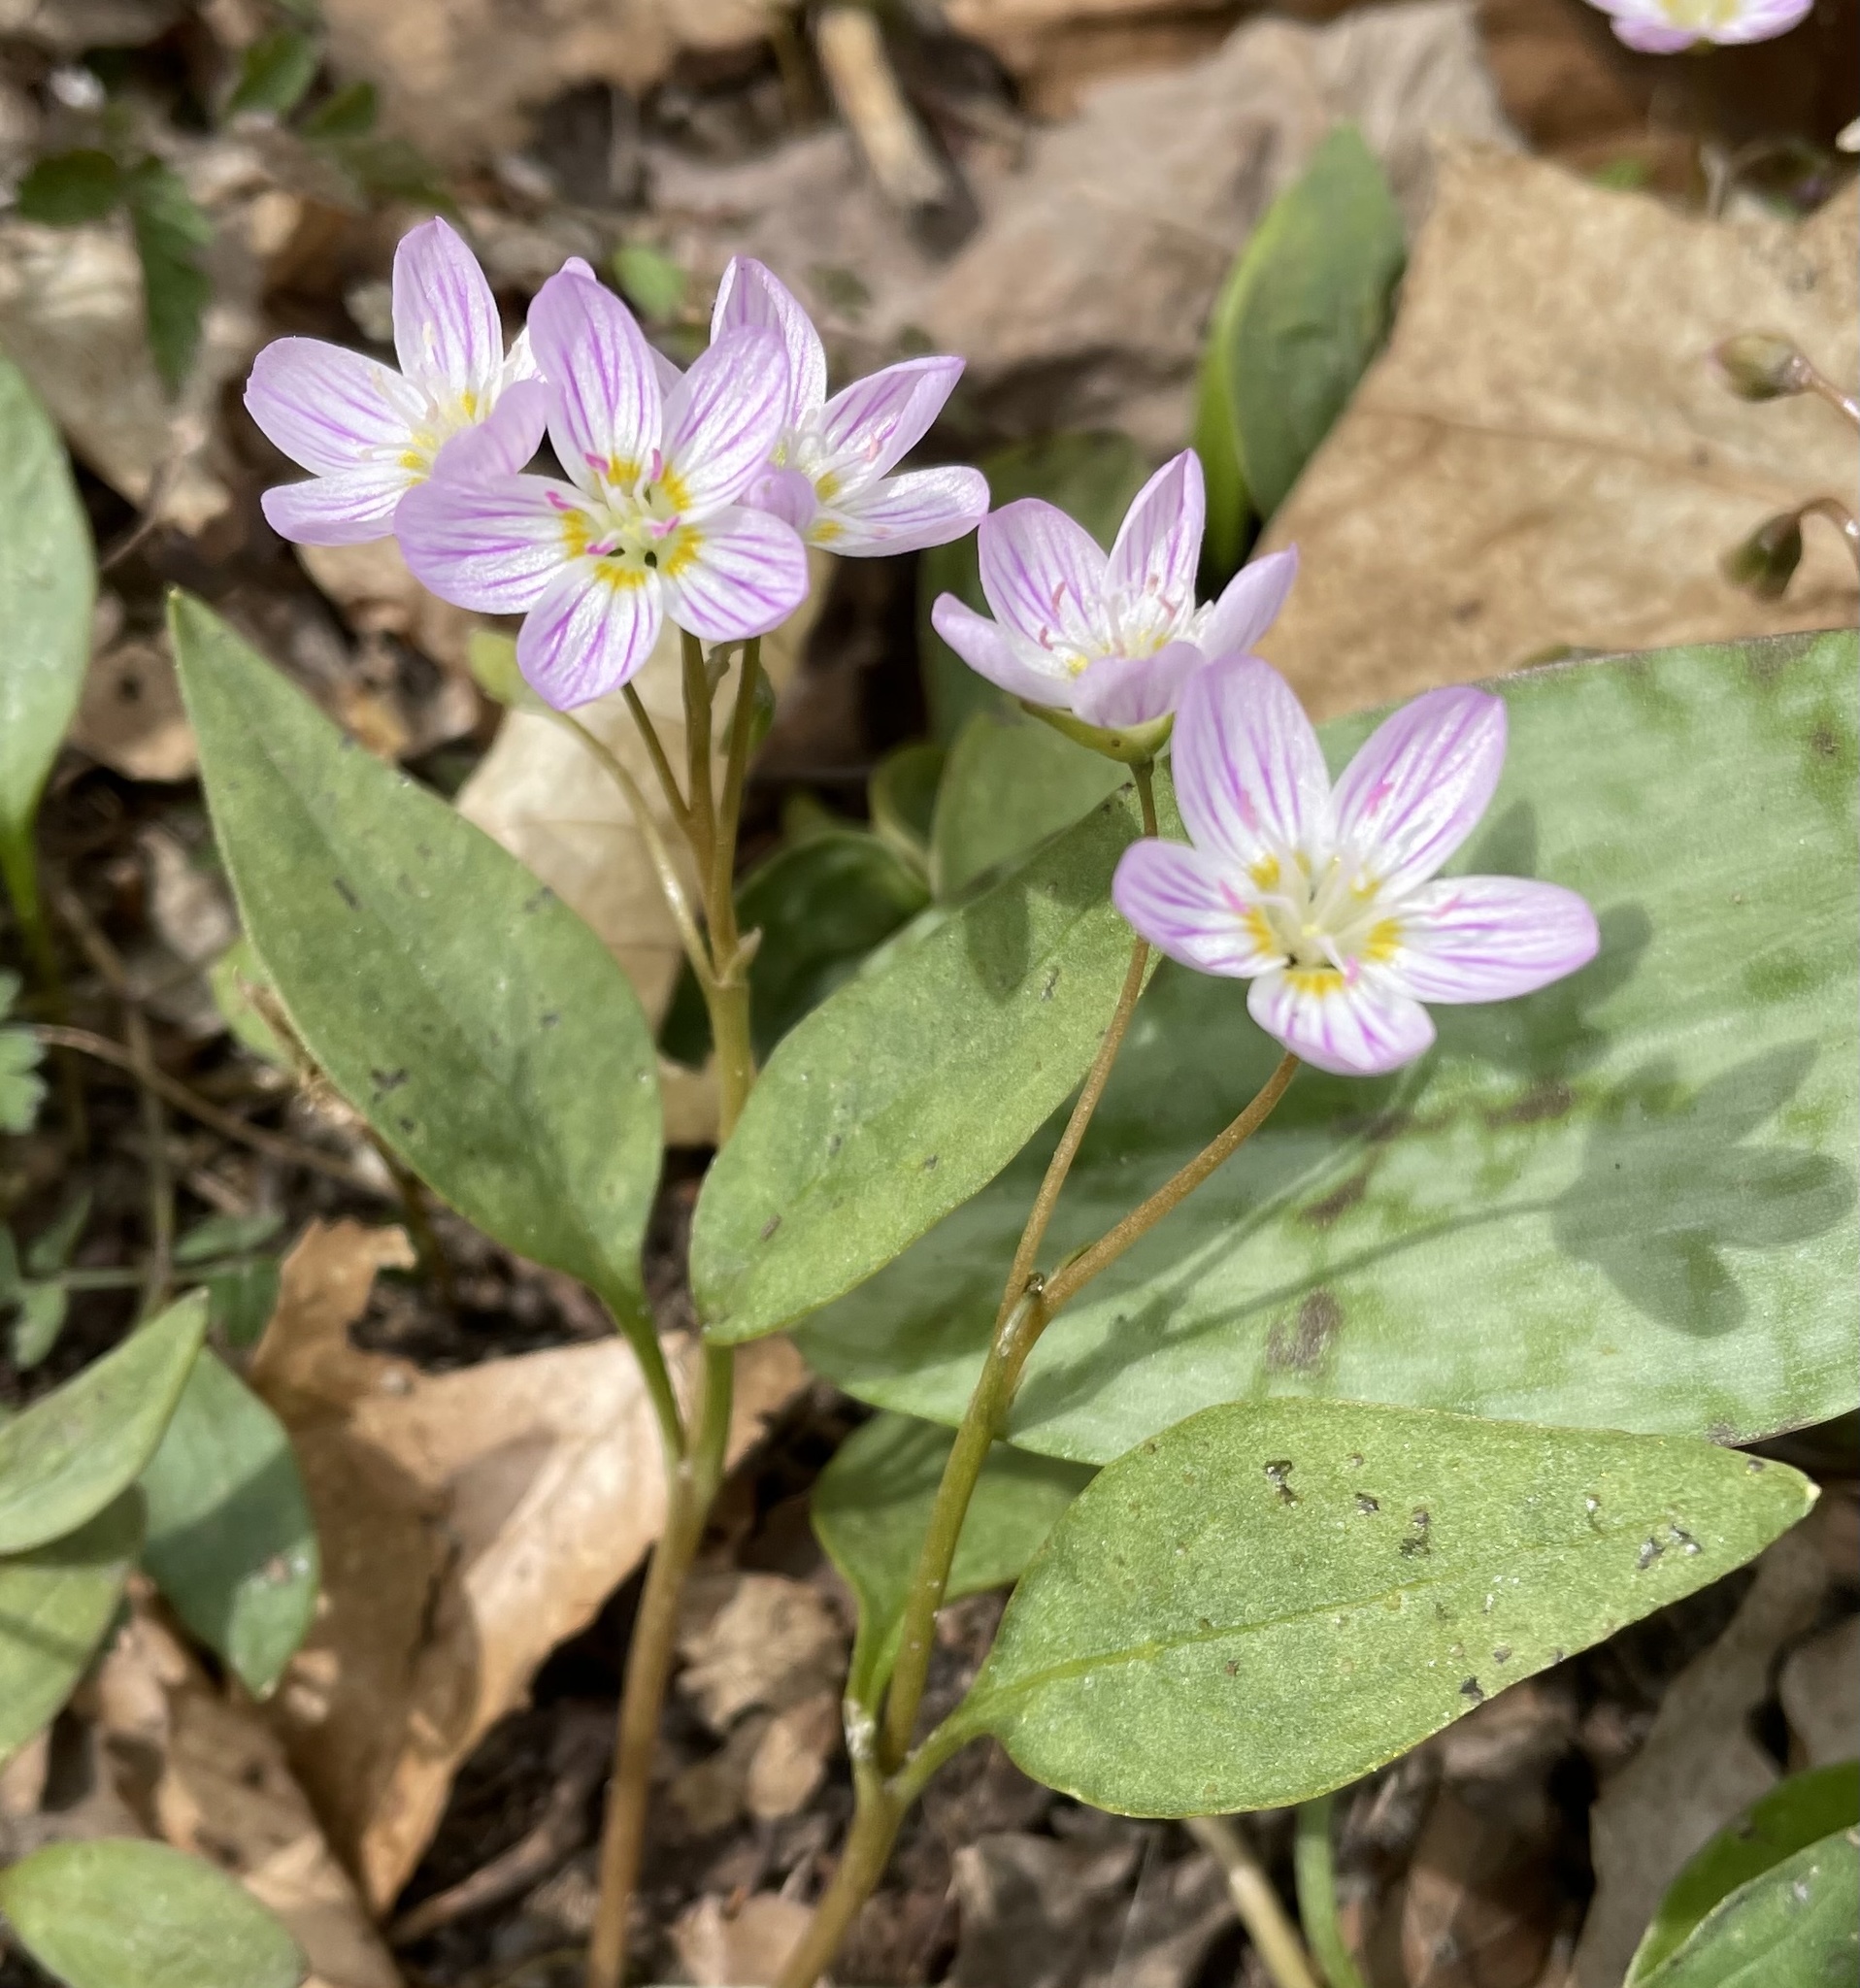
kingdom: Plantae
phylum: Tracheophyta
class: Magnoliopsida
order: Caryophyllales
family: Montiaceae
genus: Claytonia
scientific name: Claytonia caroliniana
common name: Carolina spring beauty
